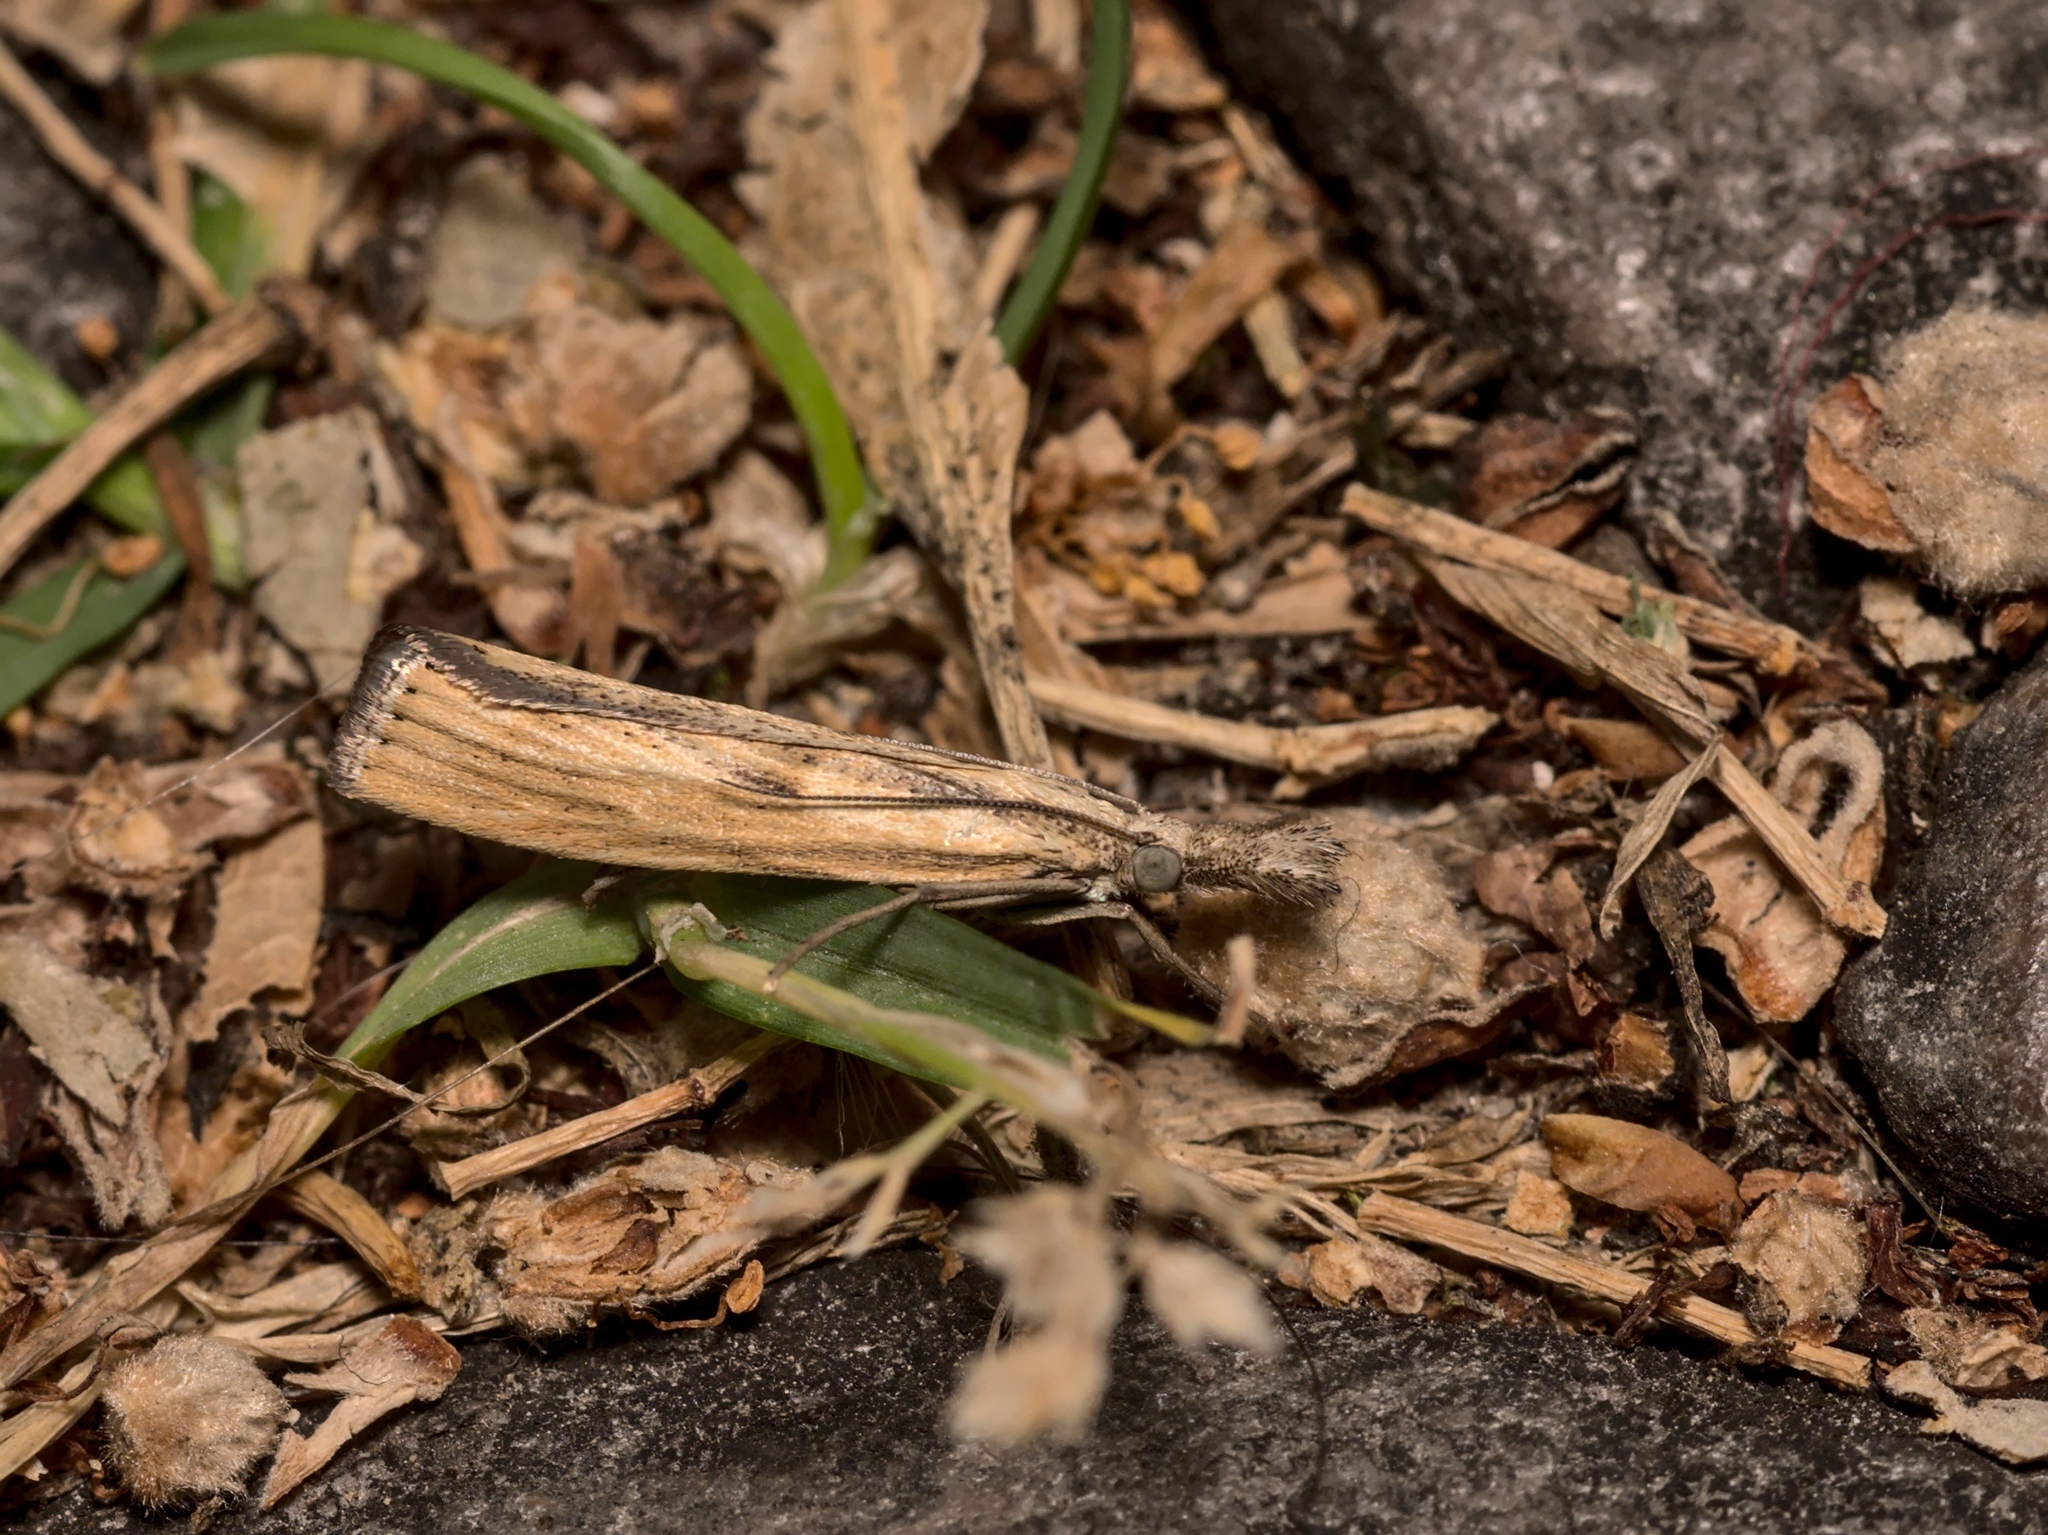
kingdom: Animalia
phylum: Arthropoda
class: Insecta
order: Lepidoptera
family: Crambidae
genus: Agriphila
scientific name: Agriphila inquinatella
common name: Barred grass-veneer
